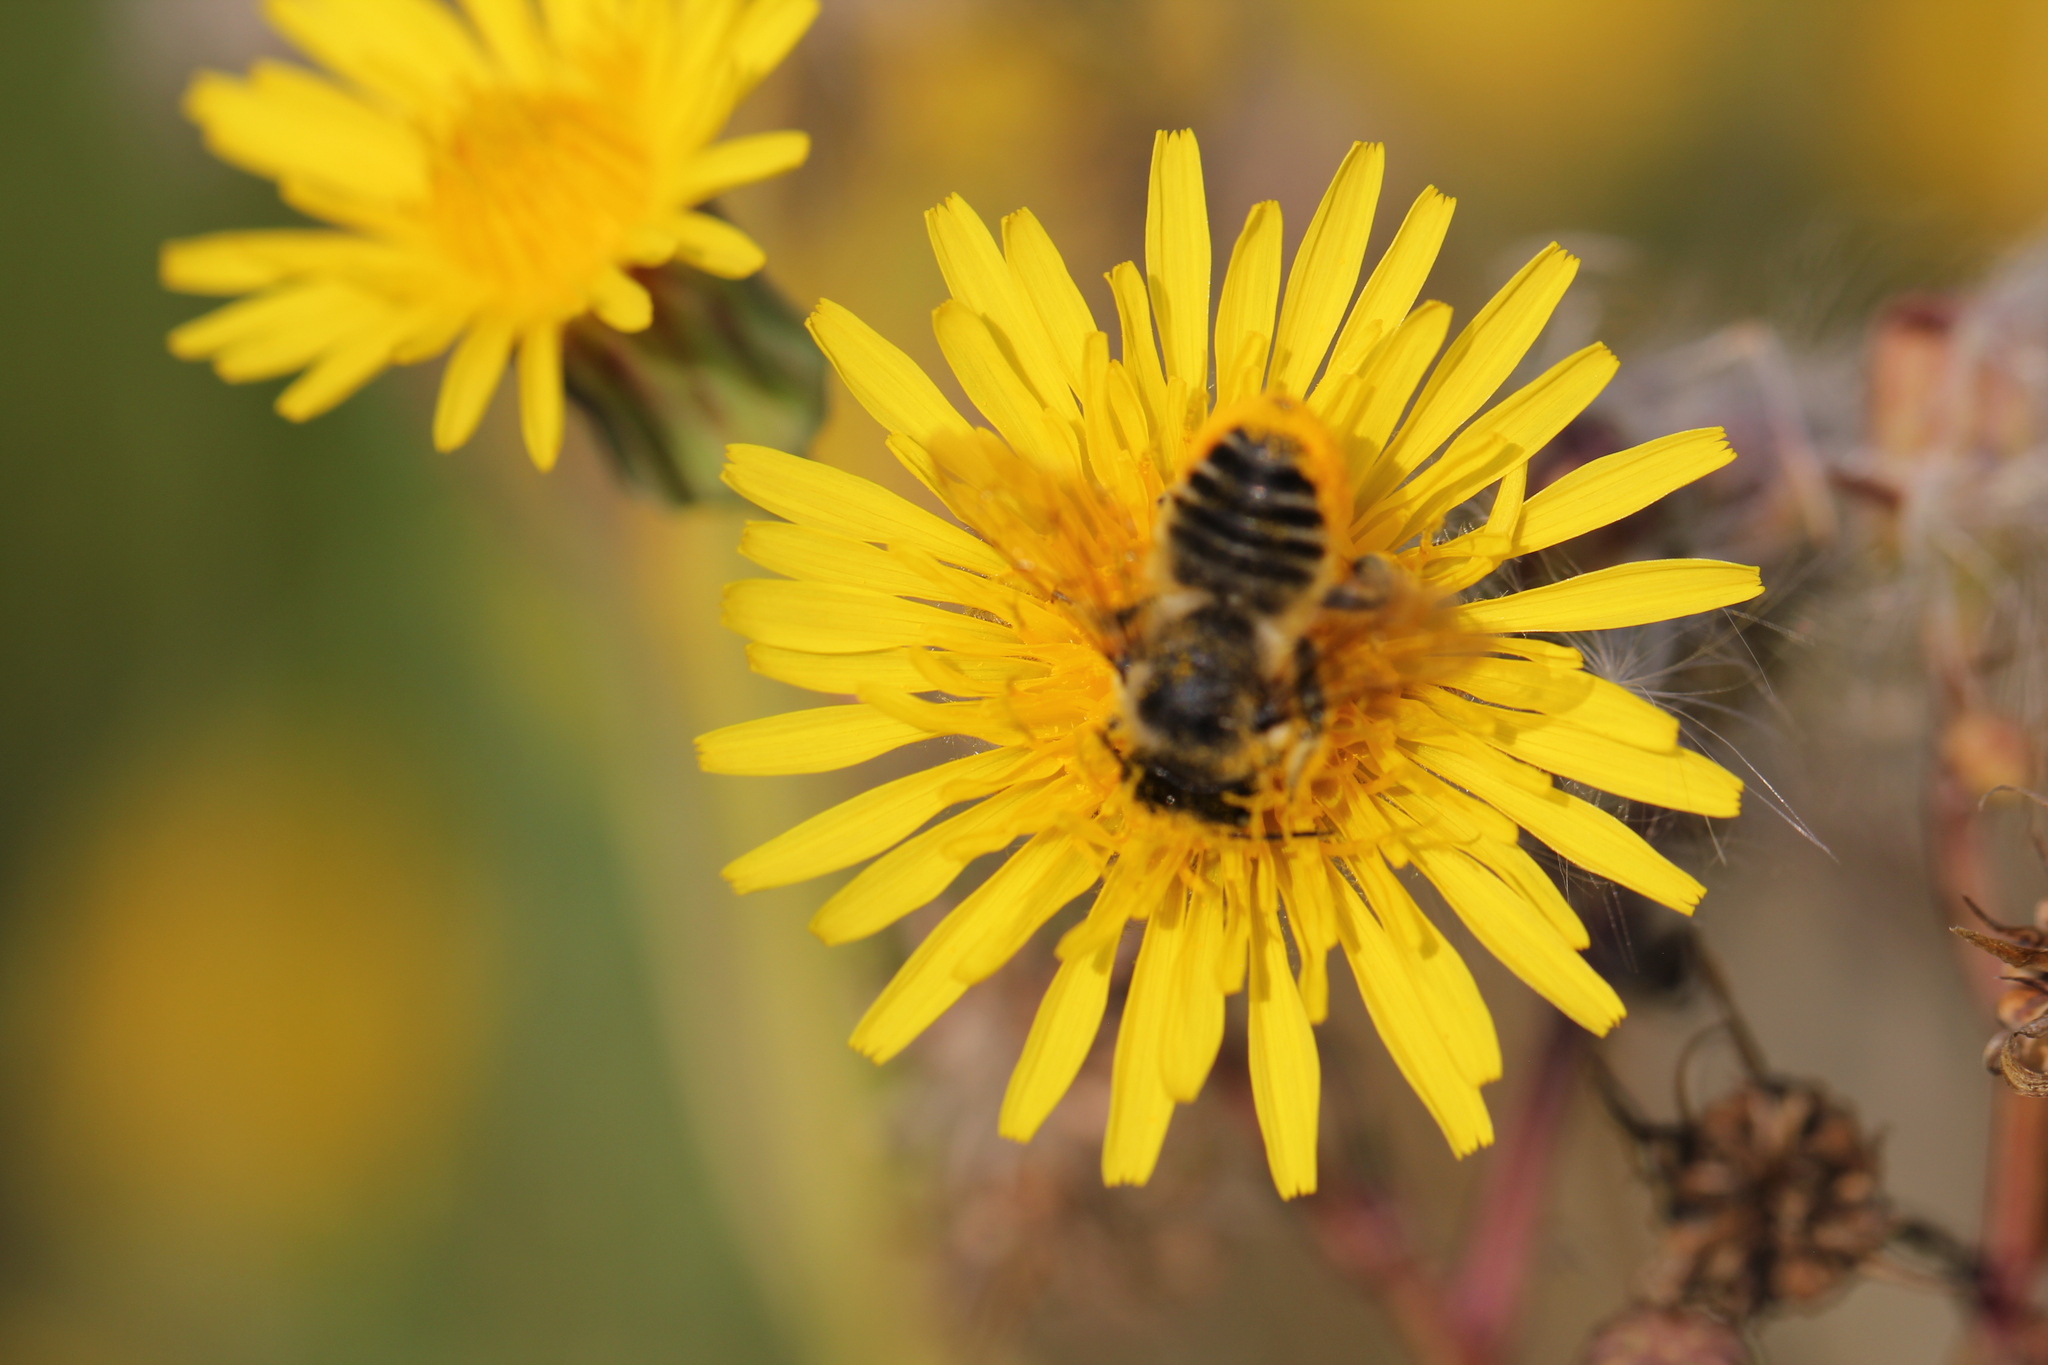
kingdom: Animalia
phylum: Arthropoda
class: Insecta
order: Hymenoptera
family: Megachilidae
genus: Megachile
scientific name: Megachile latimanus
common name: Leafcutting bee
